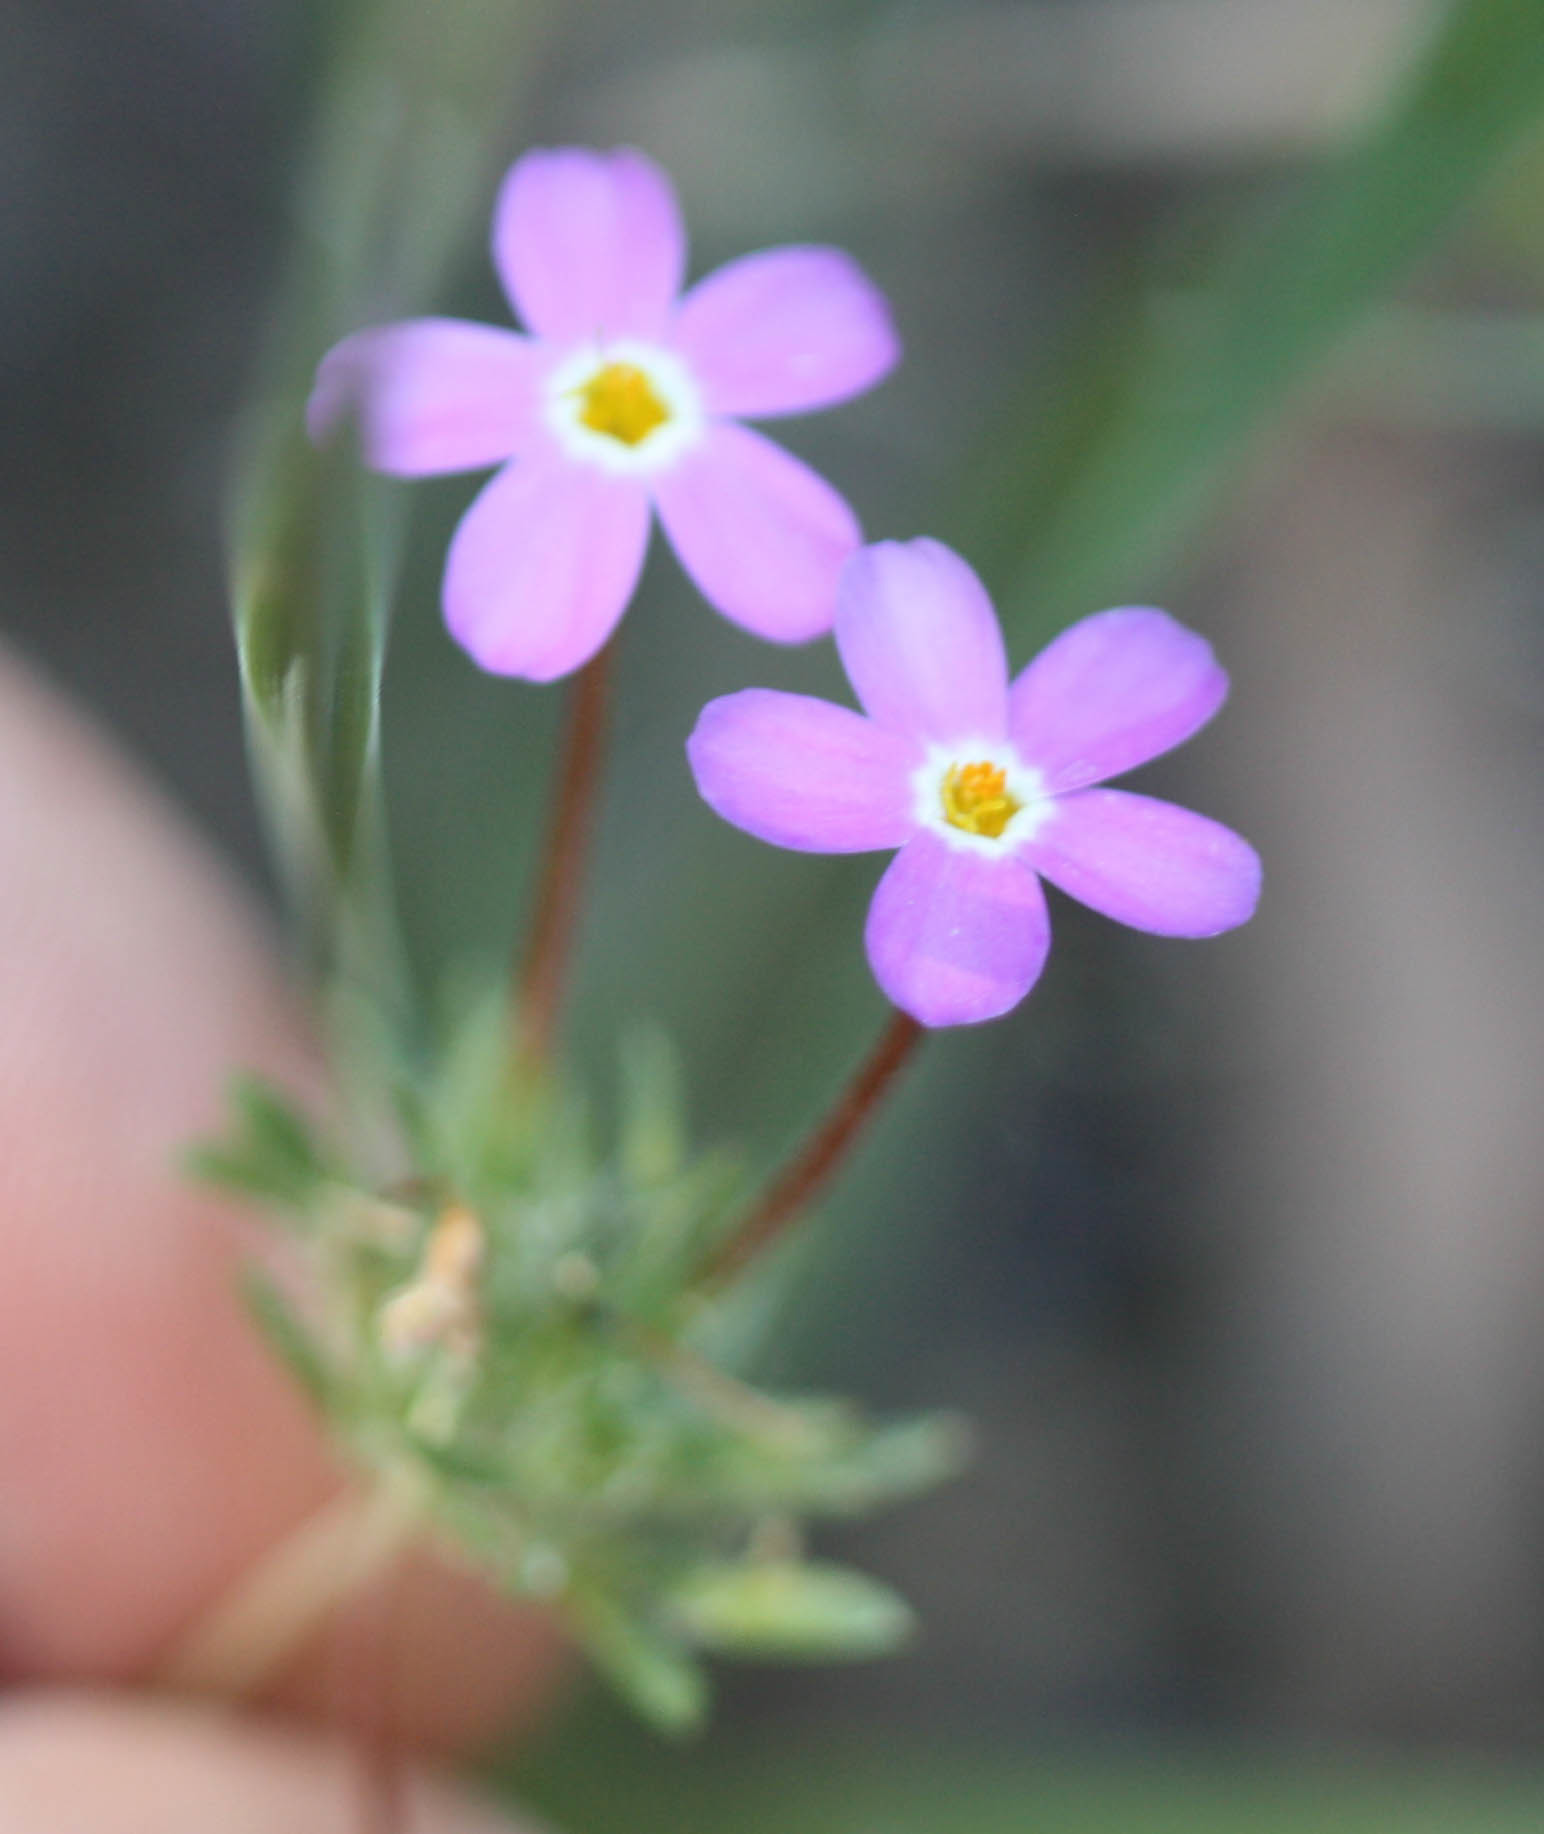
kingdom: Plantae
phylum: Tracheophyta
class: Magnoliopsida
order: Ericales
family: Polemoniaceae
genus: Leptosiphon
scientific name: Leptosiphon parviflorus
